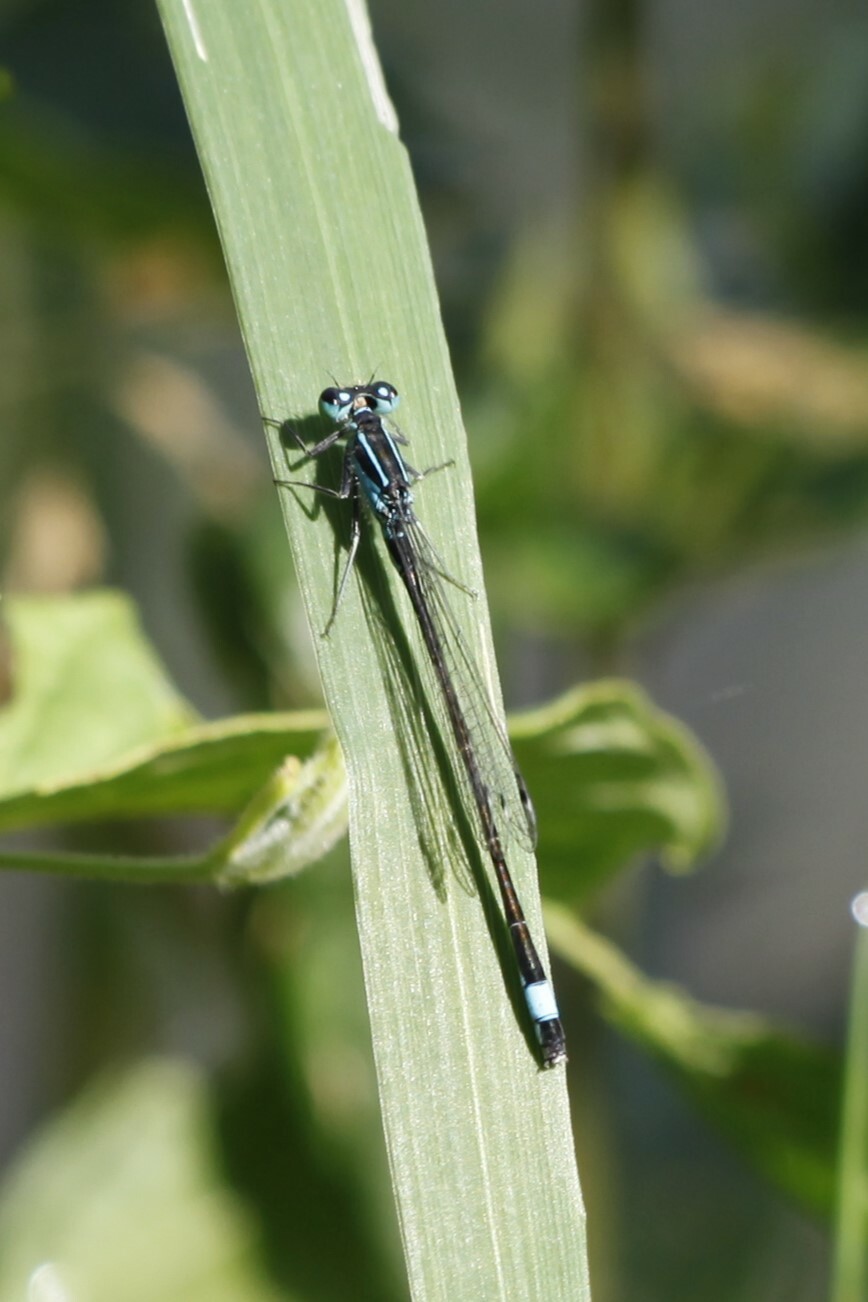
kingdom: Animalia
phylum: Arthropoda
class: Insecta
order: Odonata
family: Coenagrionidae
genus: Ischnura
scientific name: Ischnura elegans
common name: Blue-tailed damselfly
